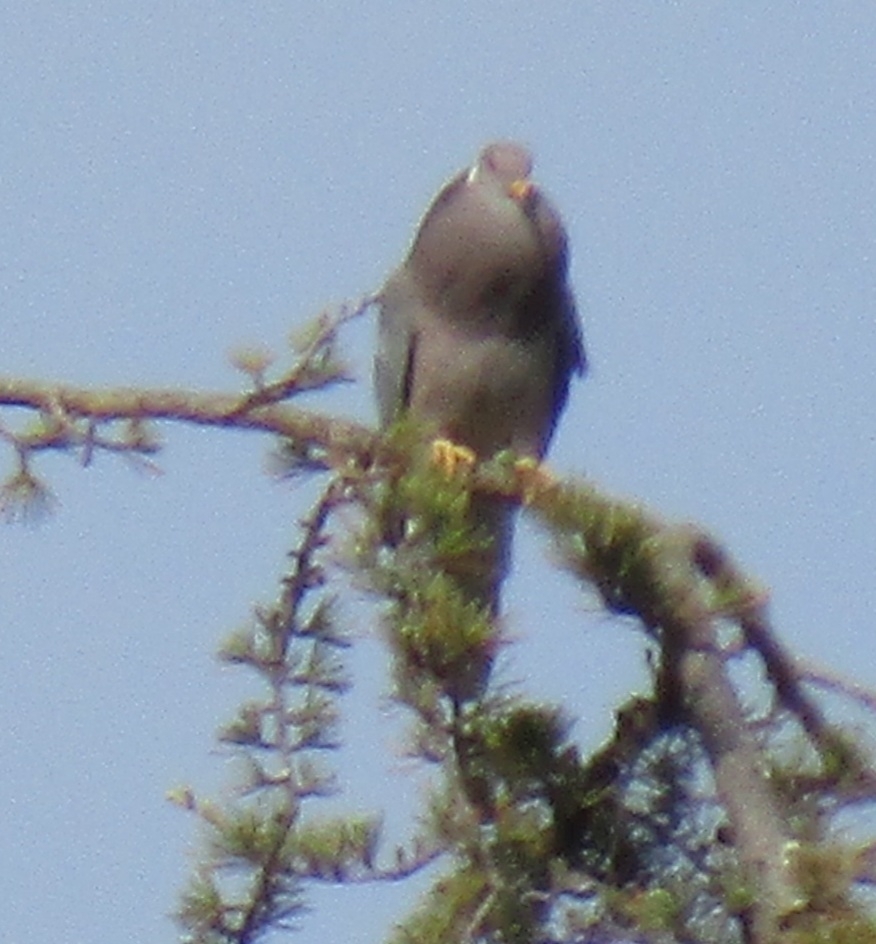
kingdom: Animalia
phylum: Chordata
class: Aves
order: Columbiformes
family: Columbidae
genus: Patagioenas
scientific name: Patagioenas fasciata
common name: Band-tailed pigeon
